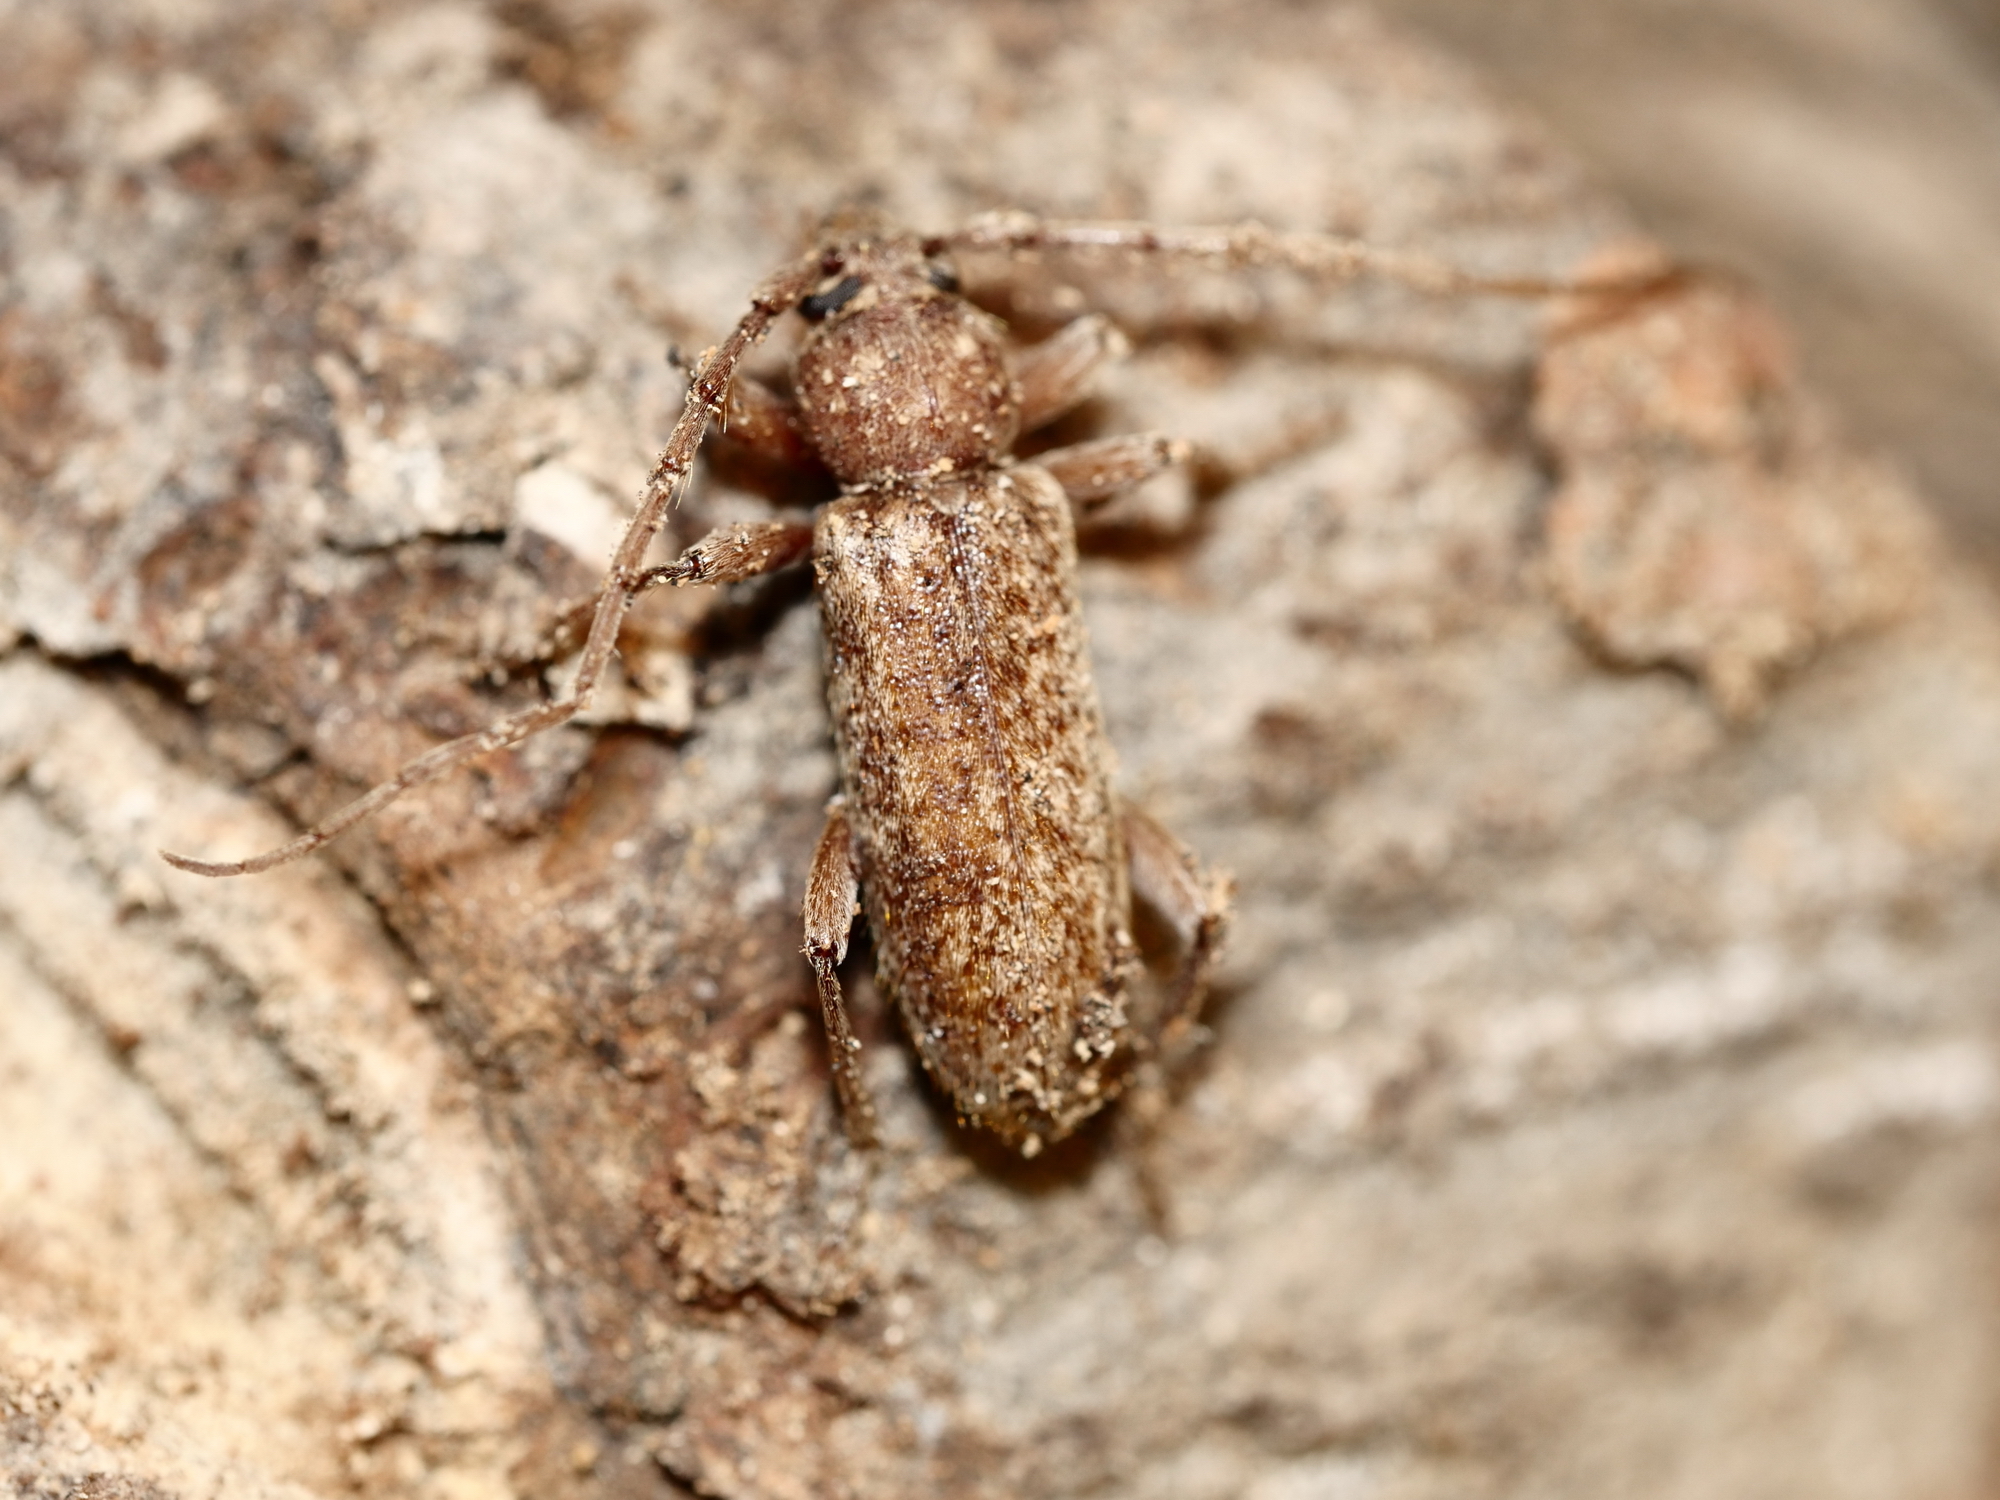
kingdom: Animalia
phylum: Arthropoda
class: Insecta
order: Coleoptera
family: Cerambycidae
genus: Trichoferus
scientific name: Trichoferus fasciculatus
